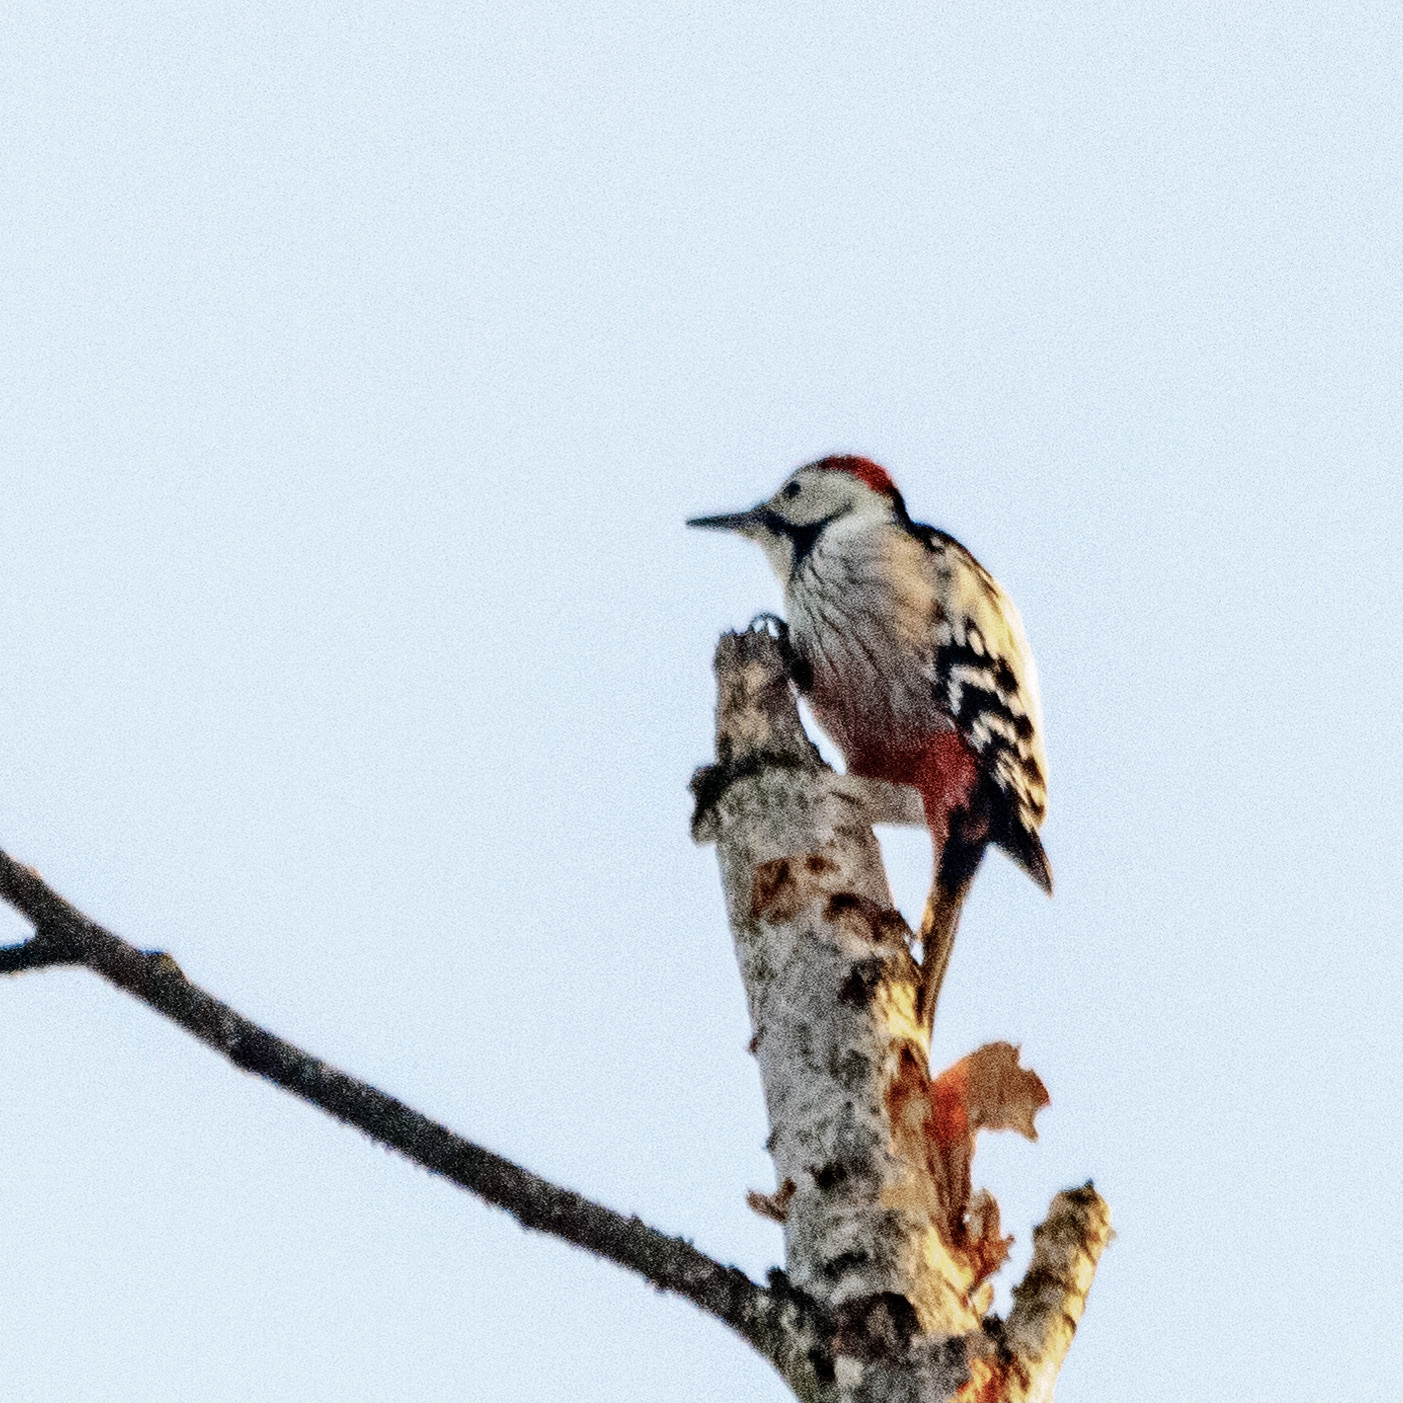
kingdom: Animalia
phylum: Chordata
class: Aves
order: Piciformes
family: Picidae
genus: Dendrocopos
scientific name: Dendrocopos leucotos
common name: White-backed woodpecker
